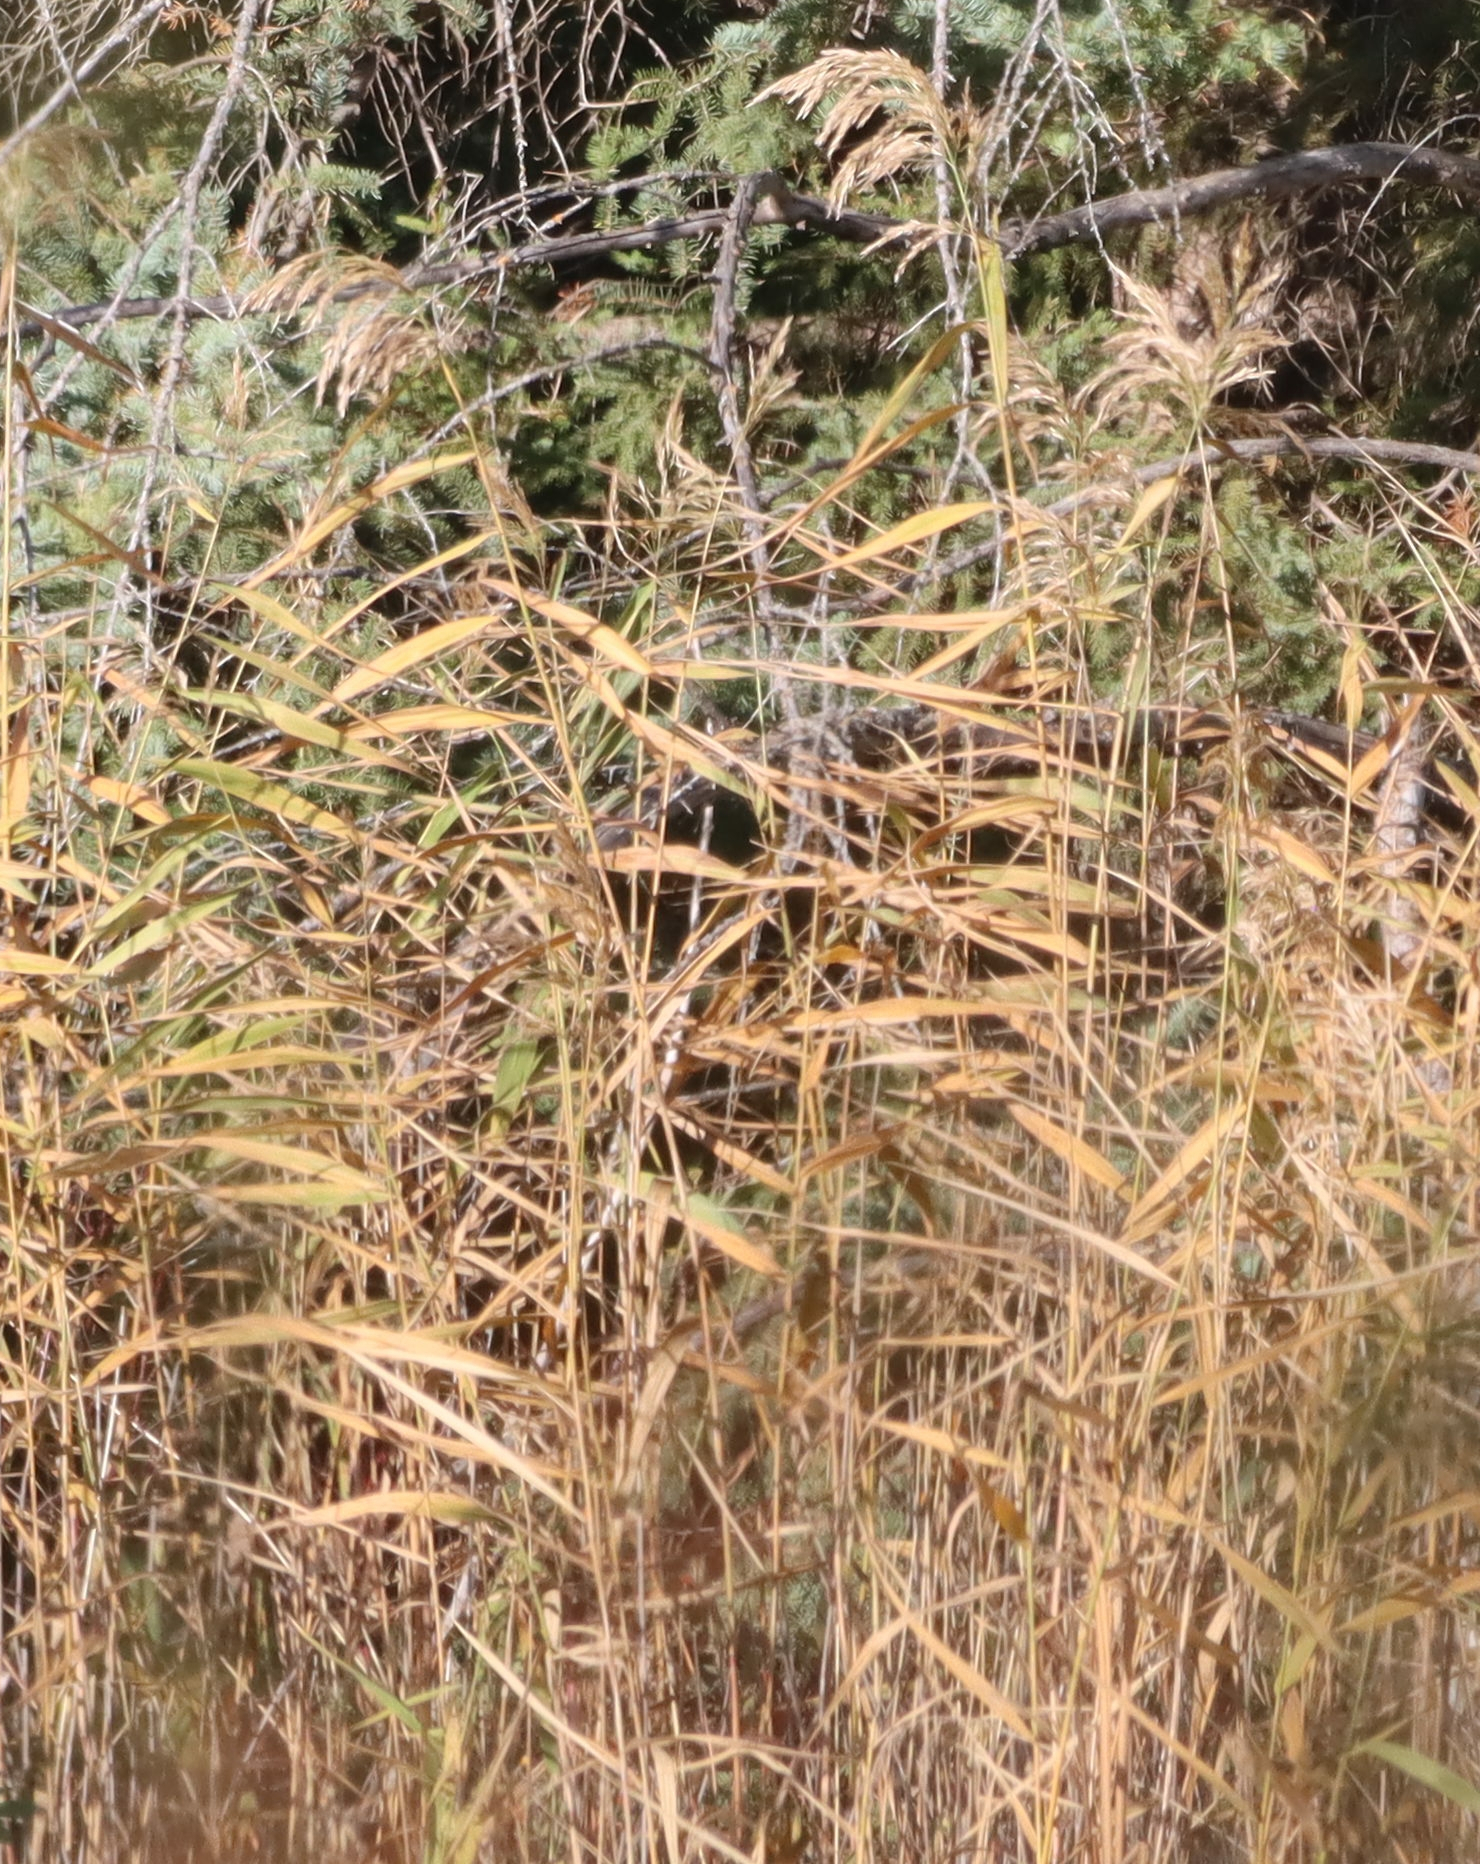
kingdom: Plantae
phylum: Tracheophyta
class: Liliopsida
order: Poales
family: Poaceae
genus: Phragmites
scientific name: Phragmites australis
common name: Common reed
